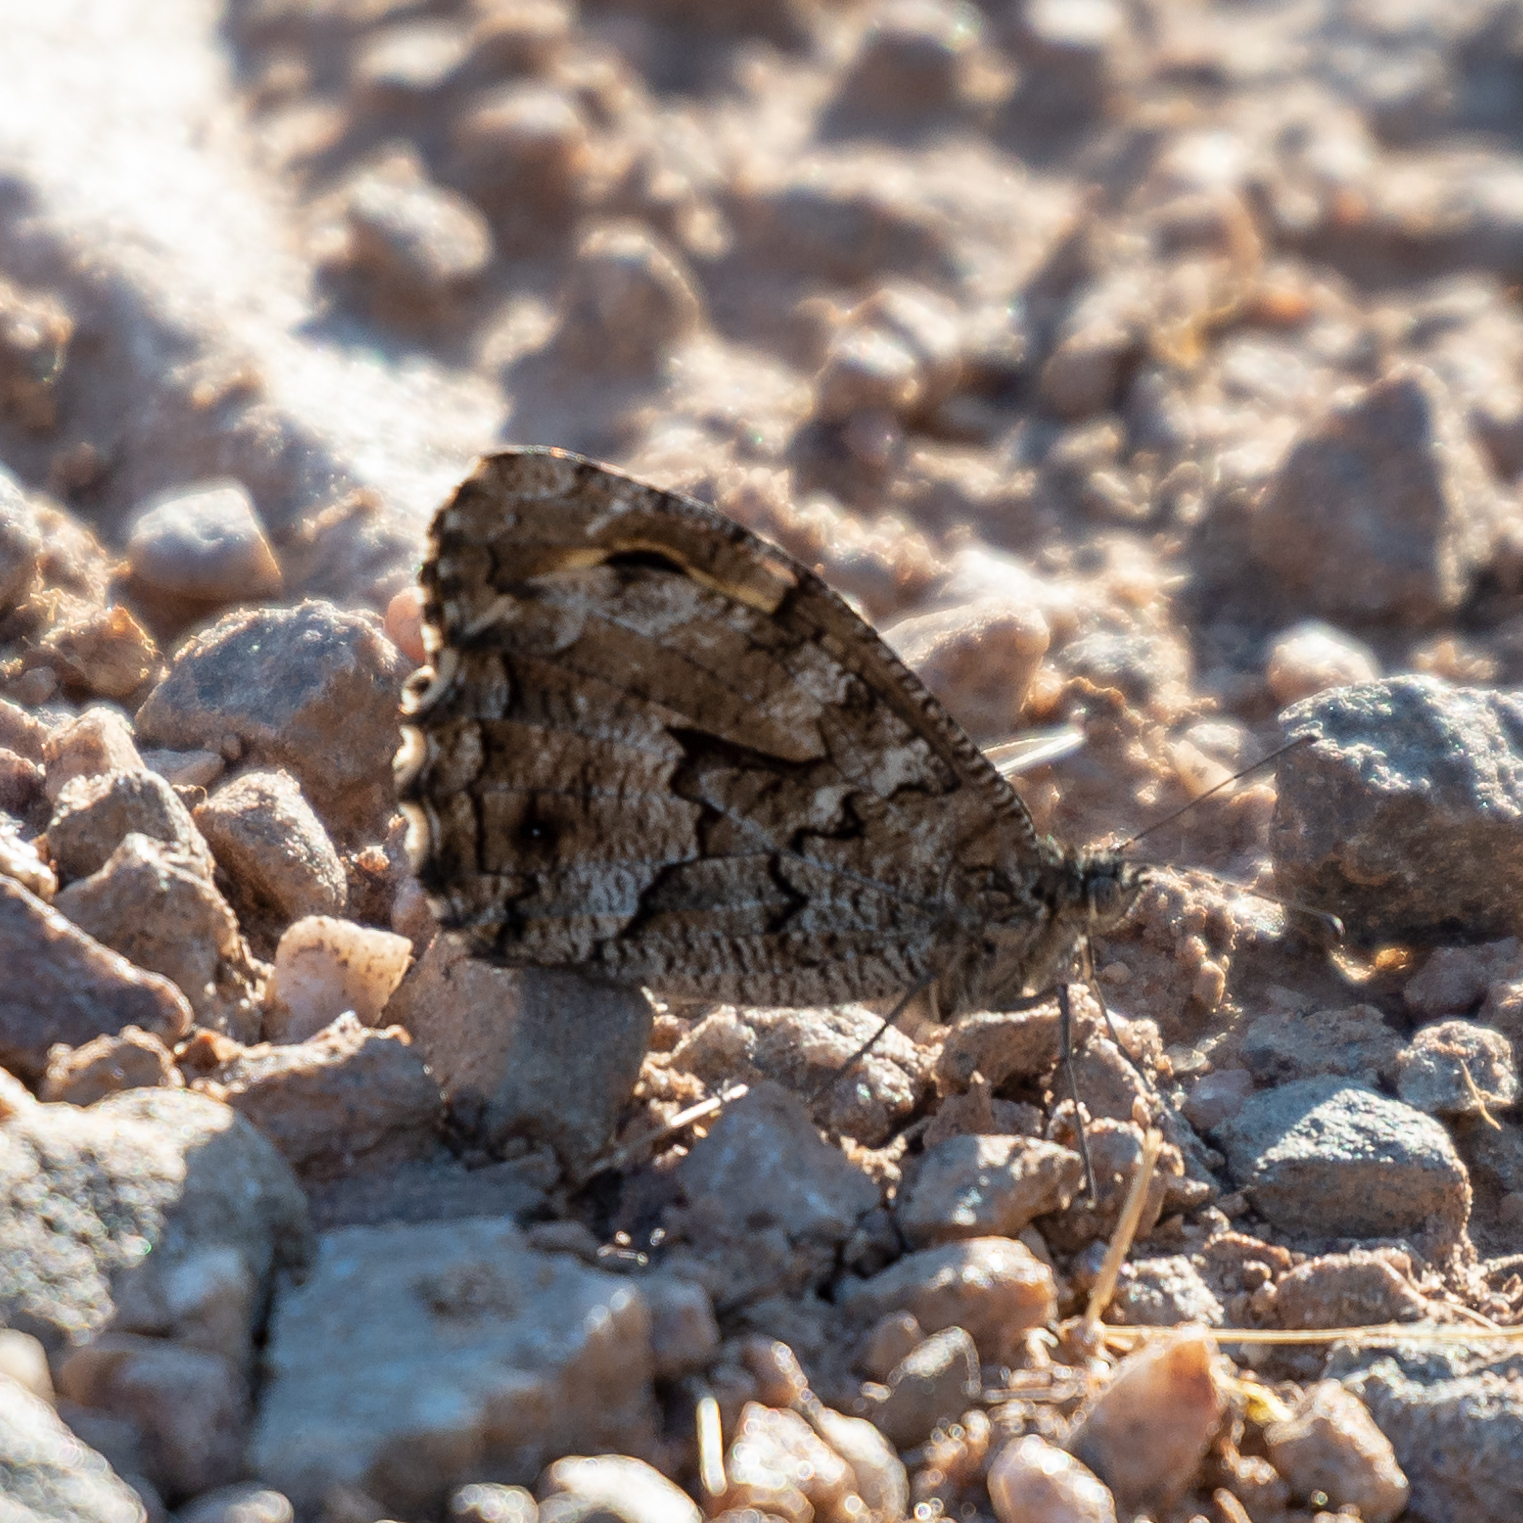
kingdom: Animalia
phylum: Arthropoda
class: Insecta
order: Lepidoptera
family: Nymphalidae
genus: Hipparchia
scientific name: Hipparchia semele
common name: Grayling
